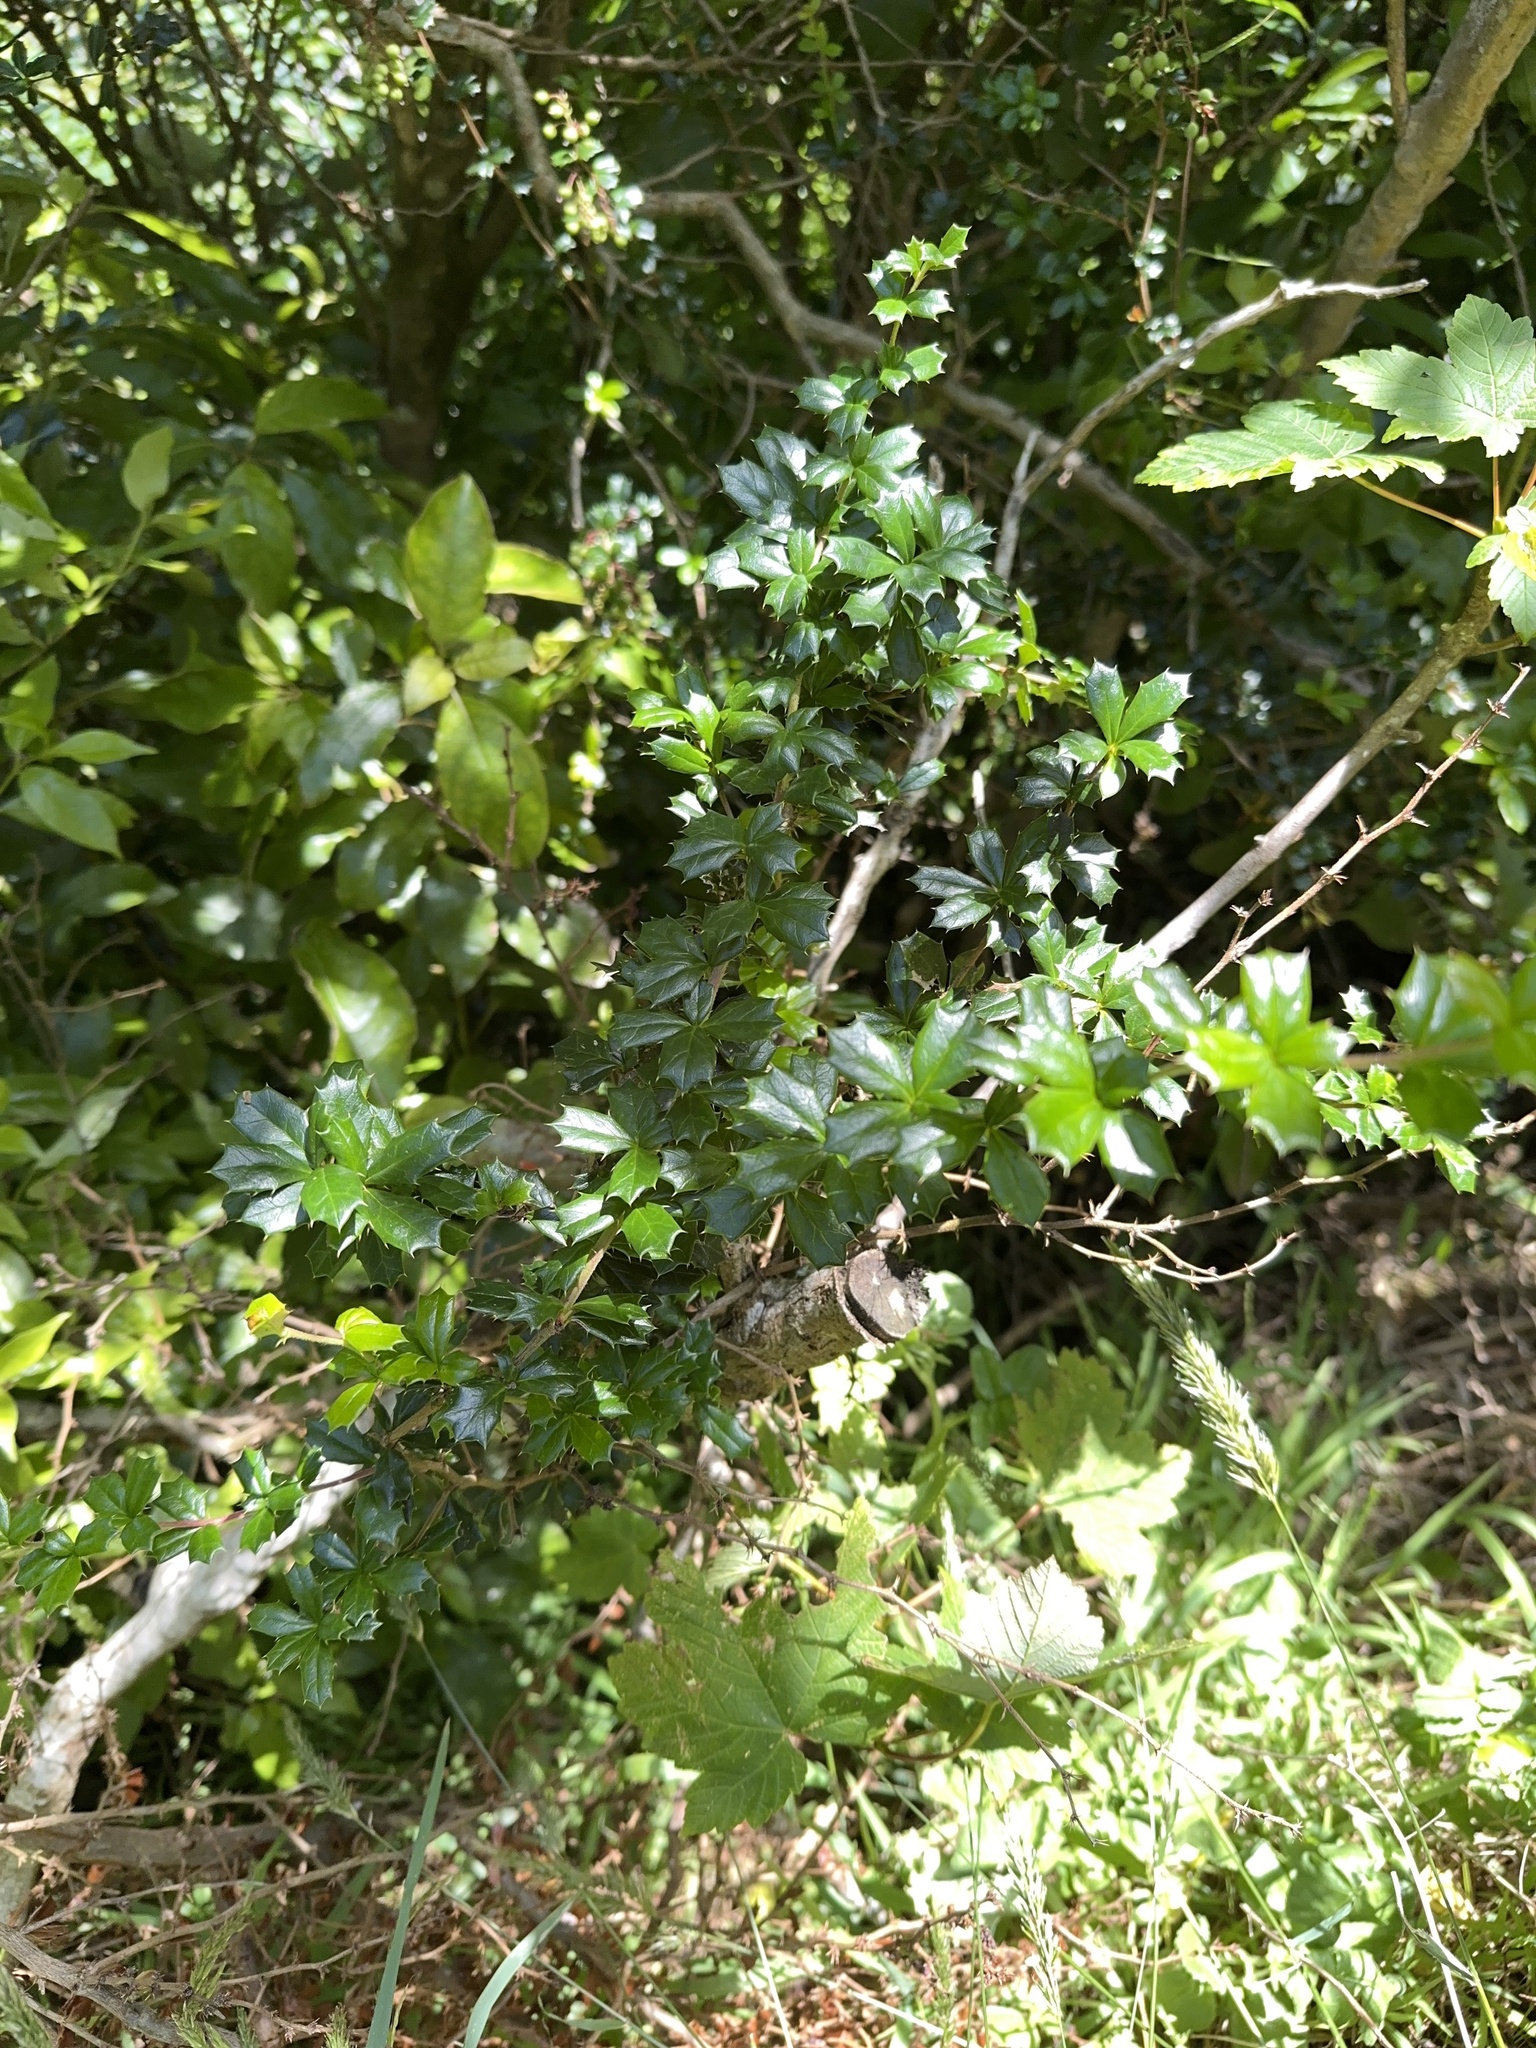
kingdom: Plantae
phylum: Tracheophyta
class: Magnoliopsida
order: Ranunculales
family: Berberidaceae
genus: Berberis
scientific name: Berberis darwinii
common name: Darwin's barberry
